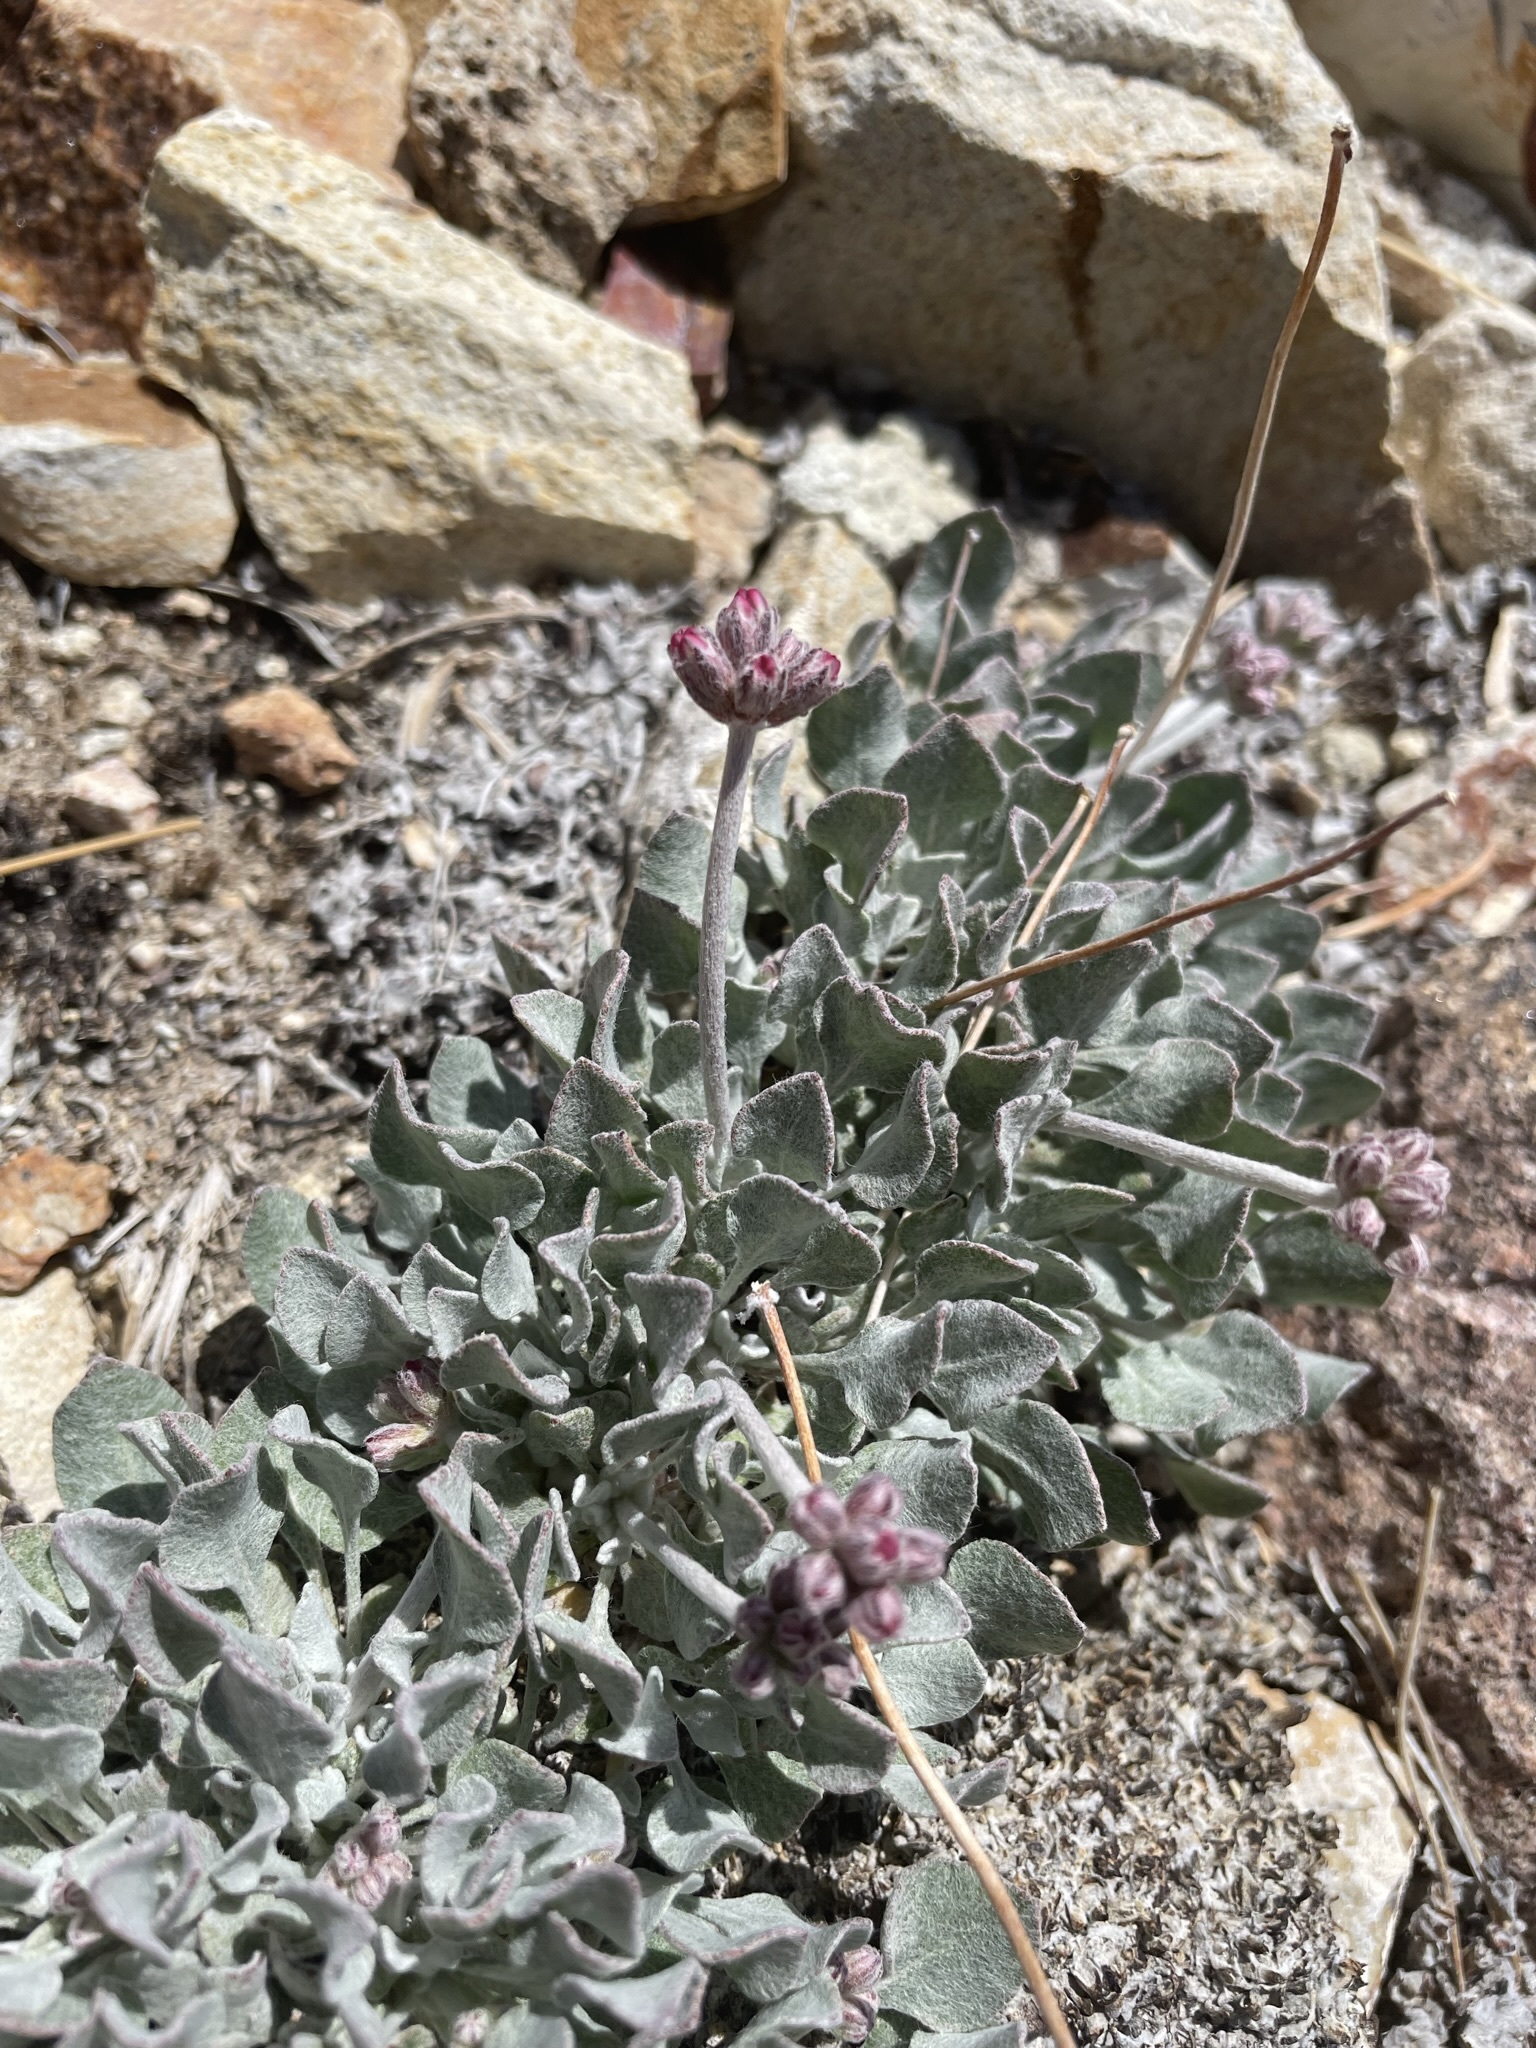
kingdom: Plantae
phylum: Tracheophyta
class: Magnoliopsida
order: Caryophyllales
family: Polygonaceae
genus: Eriogonum
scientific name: Eriogonum ovalifolium
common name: Cushion buckwheat
